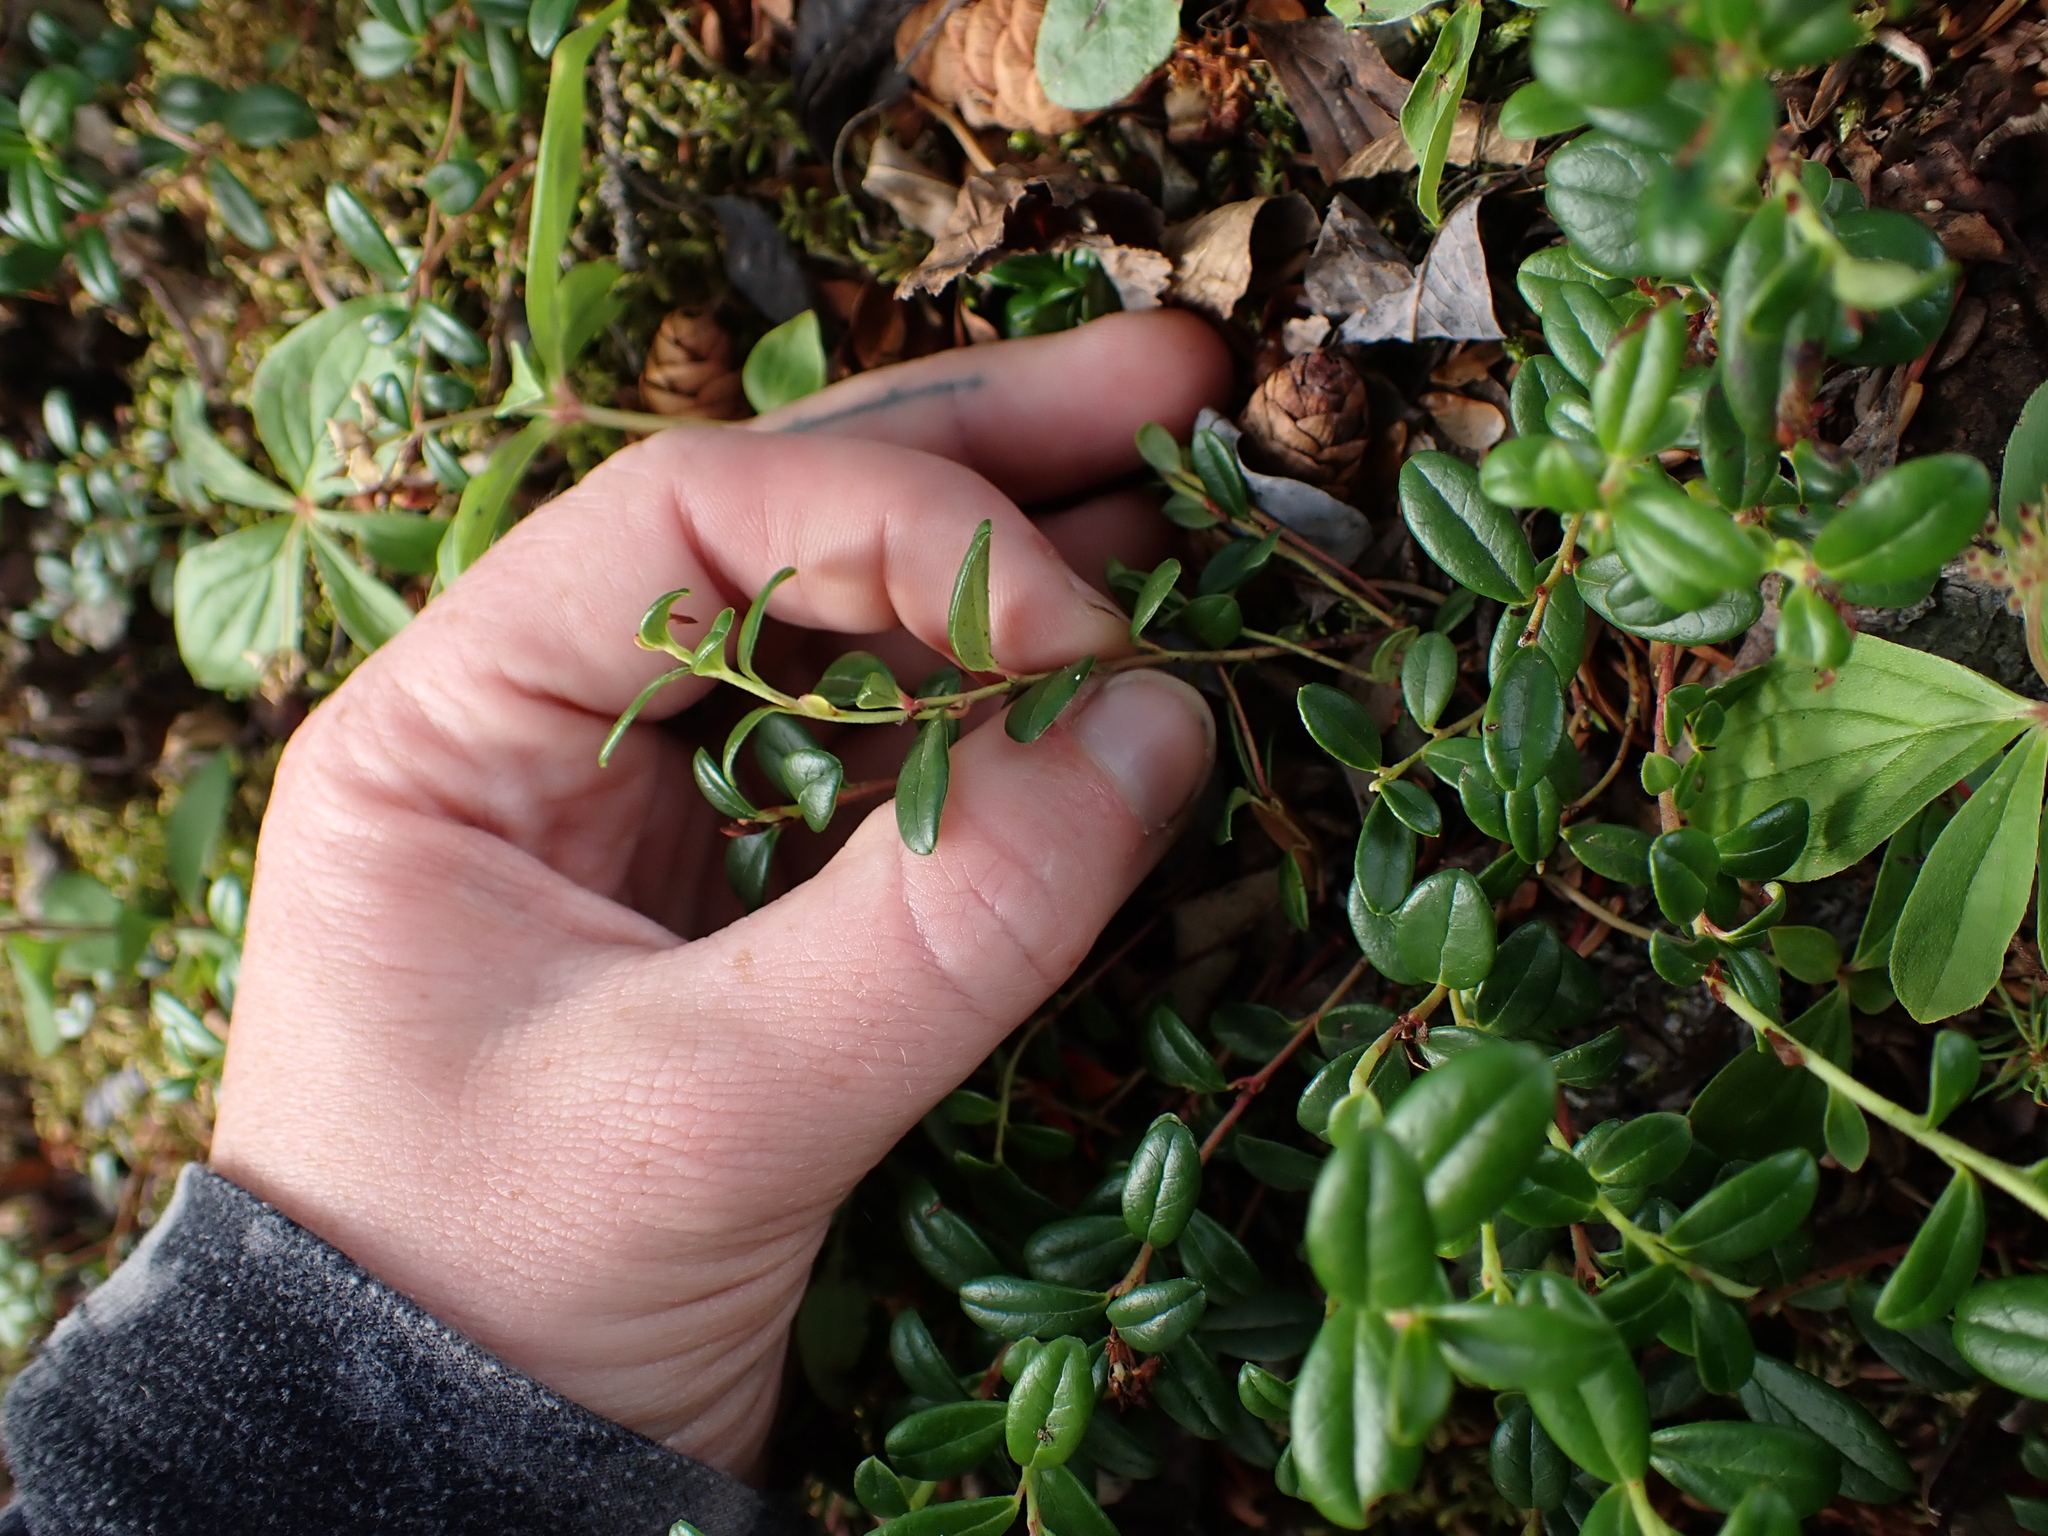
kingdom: Plantae
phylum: Tracheophyta
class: Magnoliopsida
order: Ericales
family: Ericaceae
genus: Vaccinium
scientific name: Vaccinium vitis-idaea
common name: Cowberry
